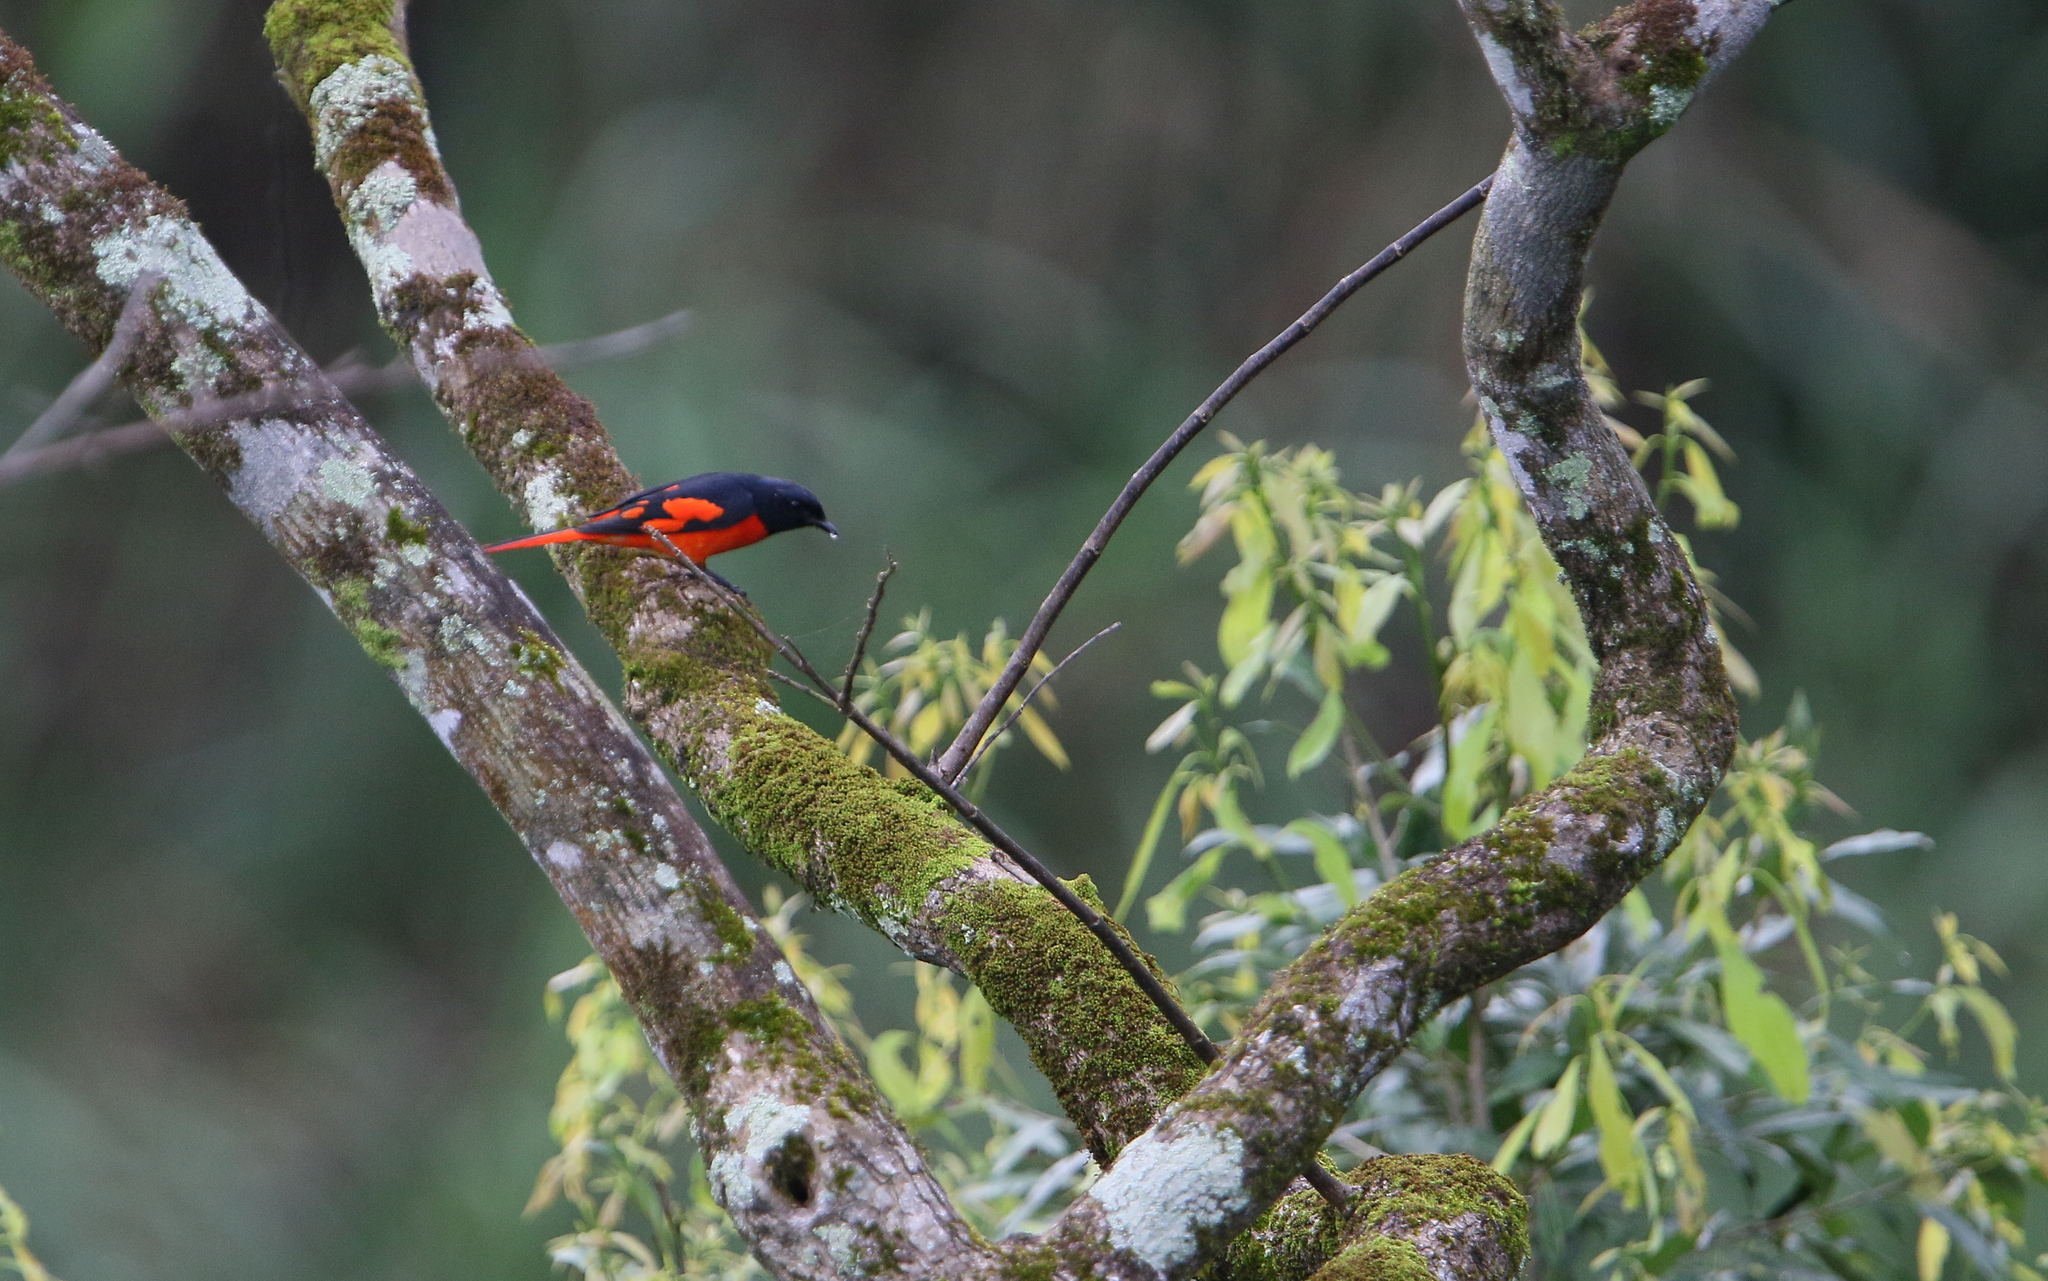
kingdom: Animalia
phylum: Chordata
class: Aves
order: Passeriformes
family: Campephagidae
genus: Pericrocotus
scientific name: Pericrocotus speciosus
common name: Scarlet minivet
